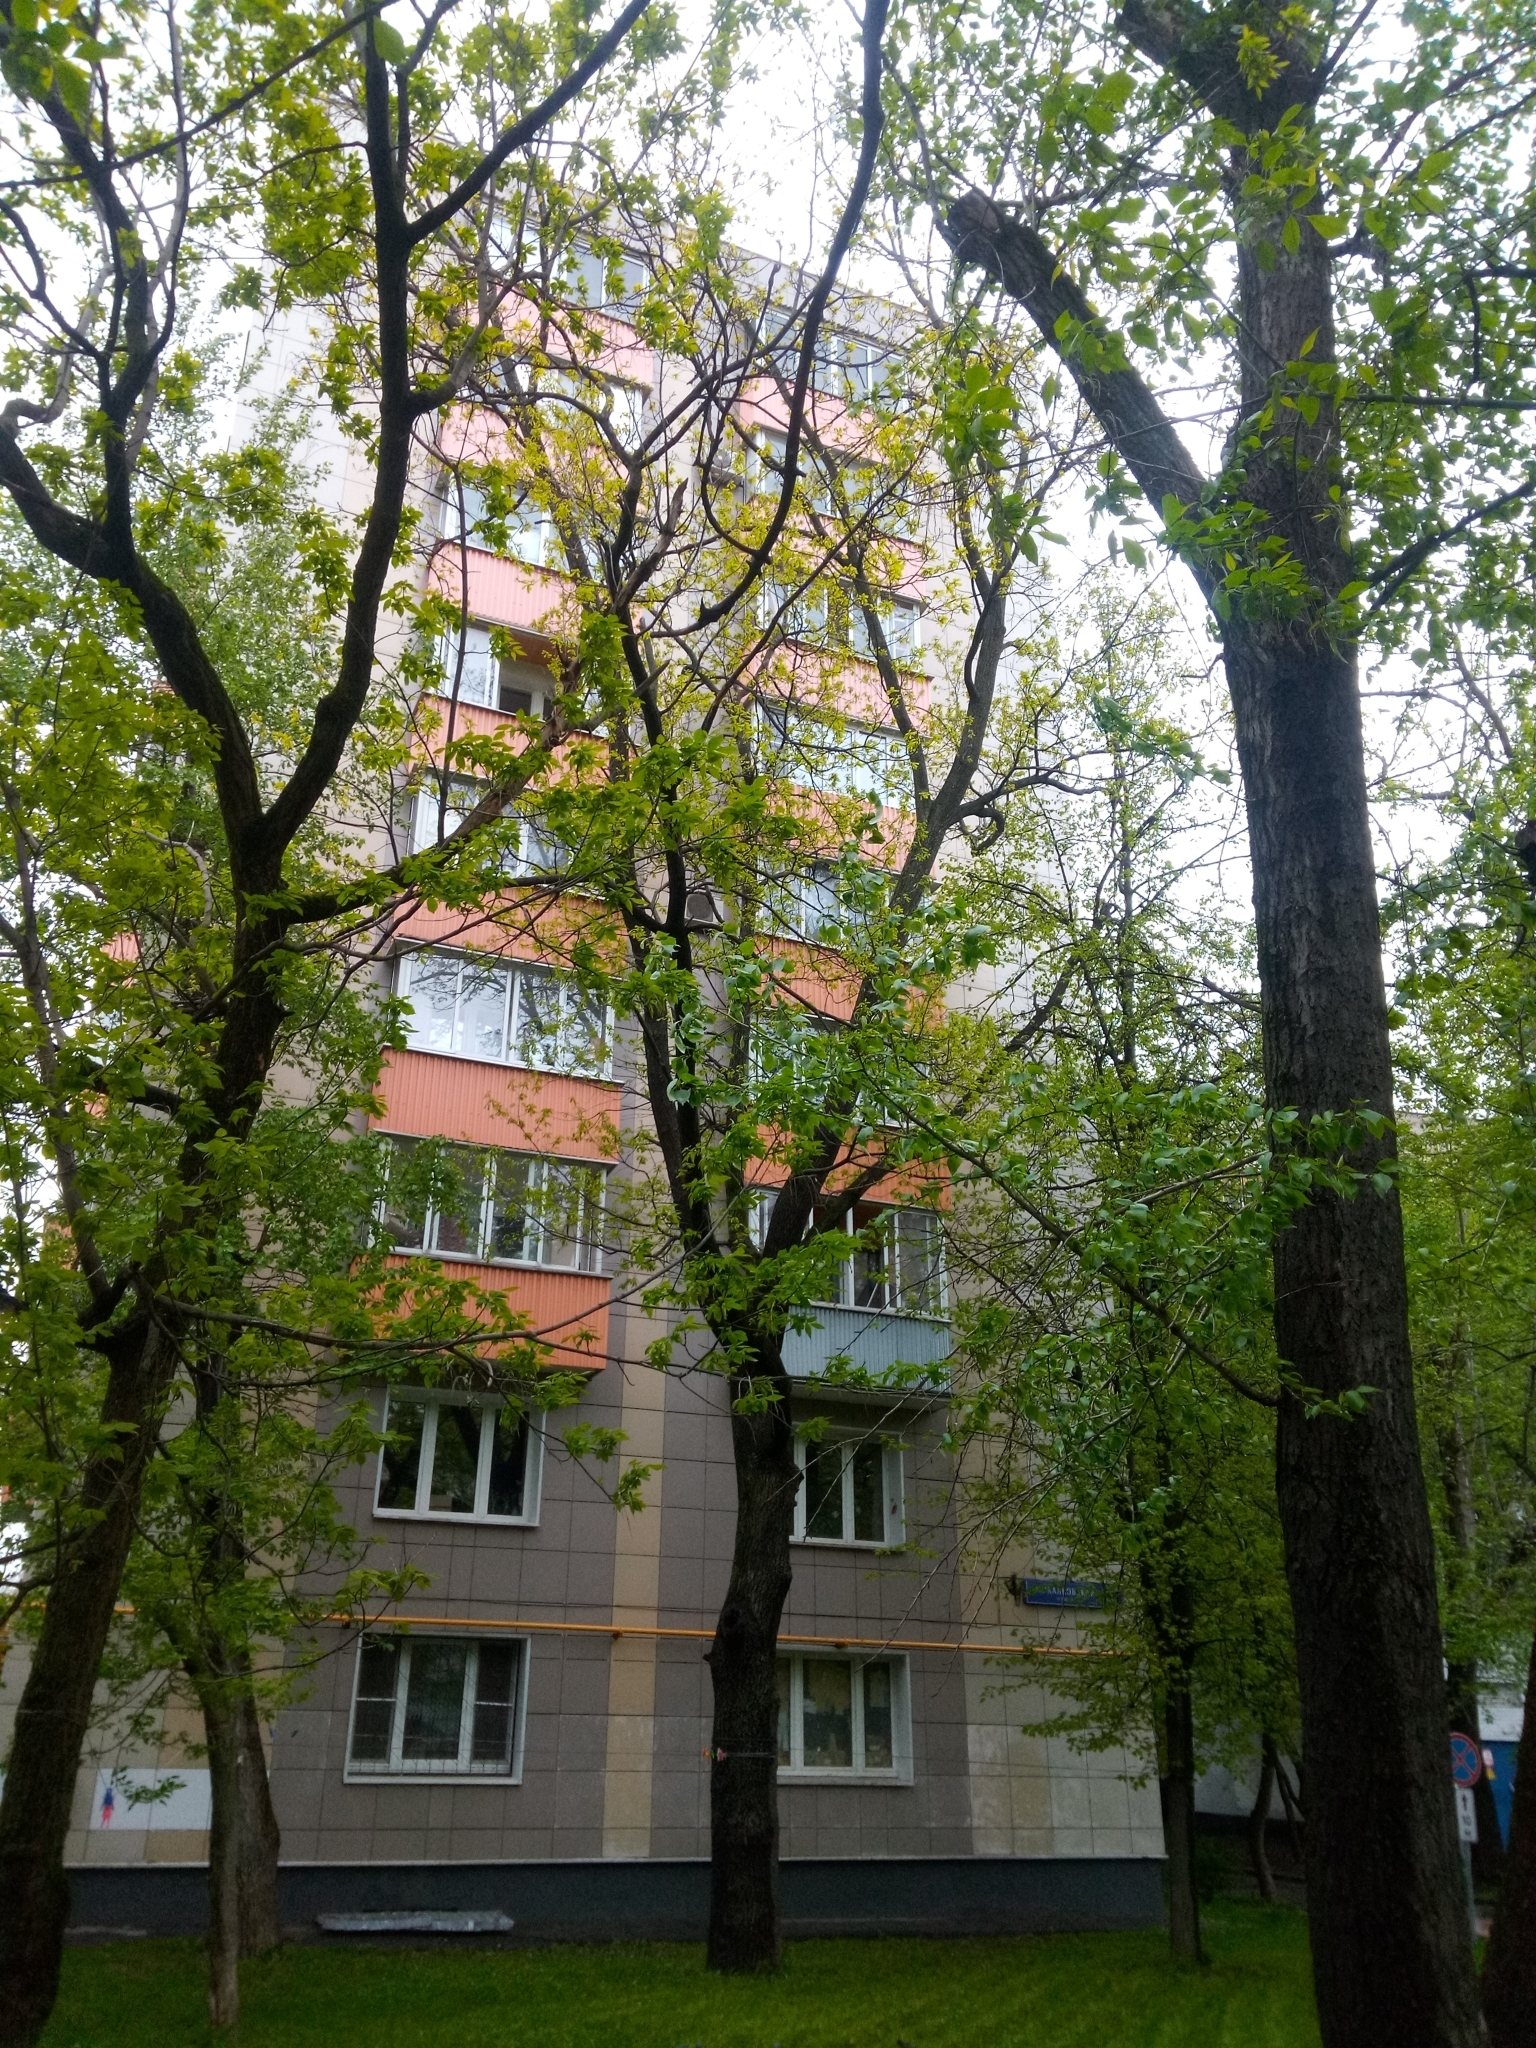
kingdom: Plantae
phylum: Tracheophyta
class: Magnoliopsida
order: Fagales
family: Fagaceae
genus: Quercus
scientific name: Quercus robur
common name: Pedunculate oak
